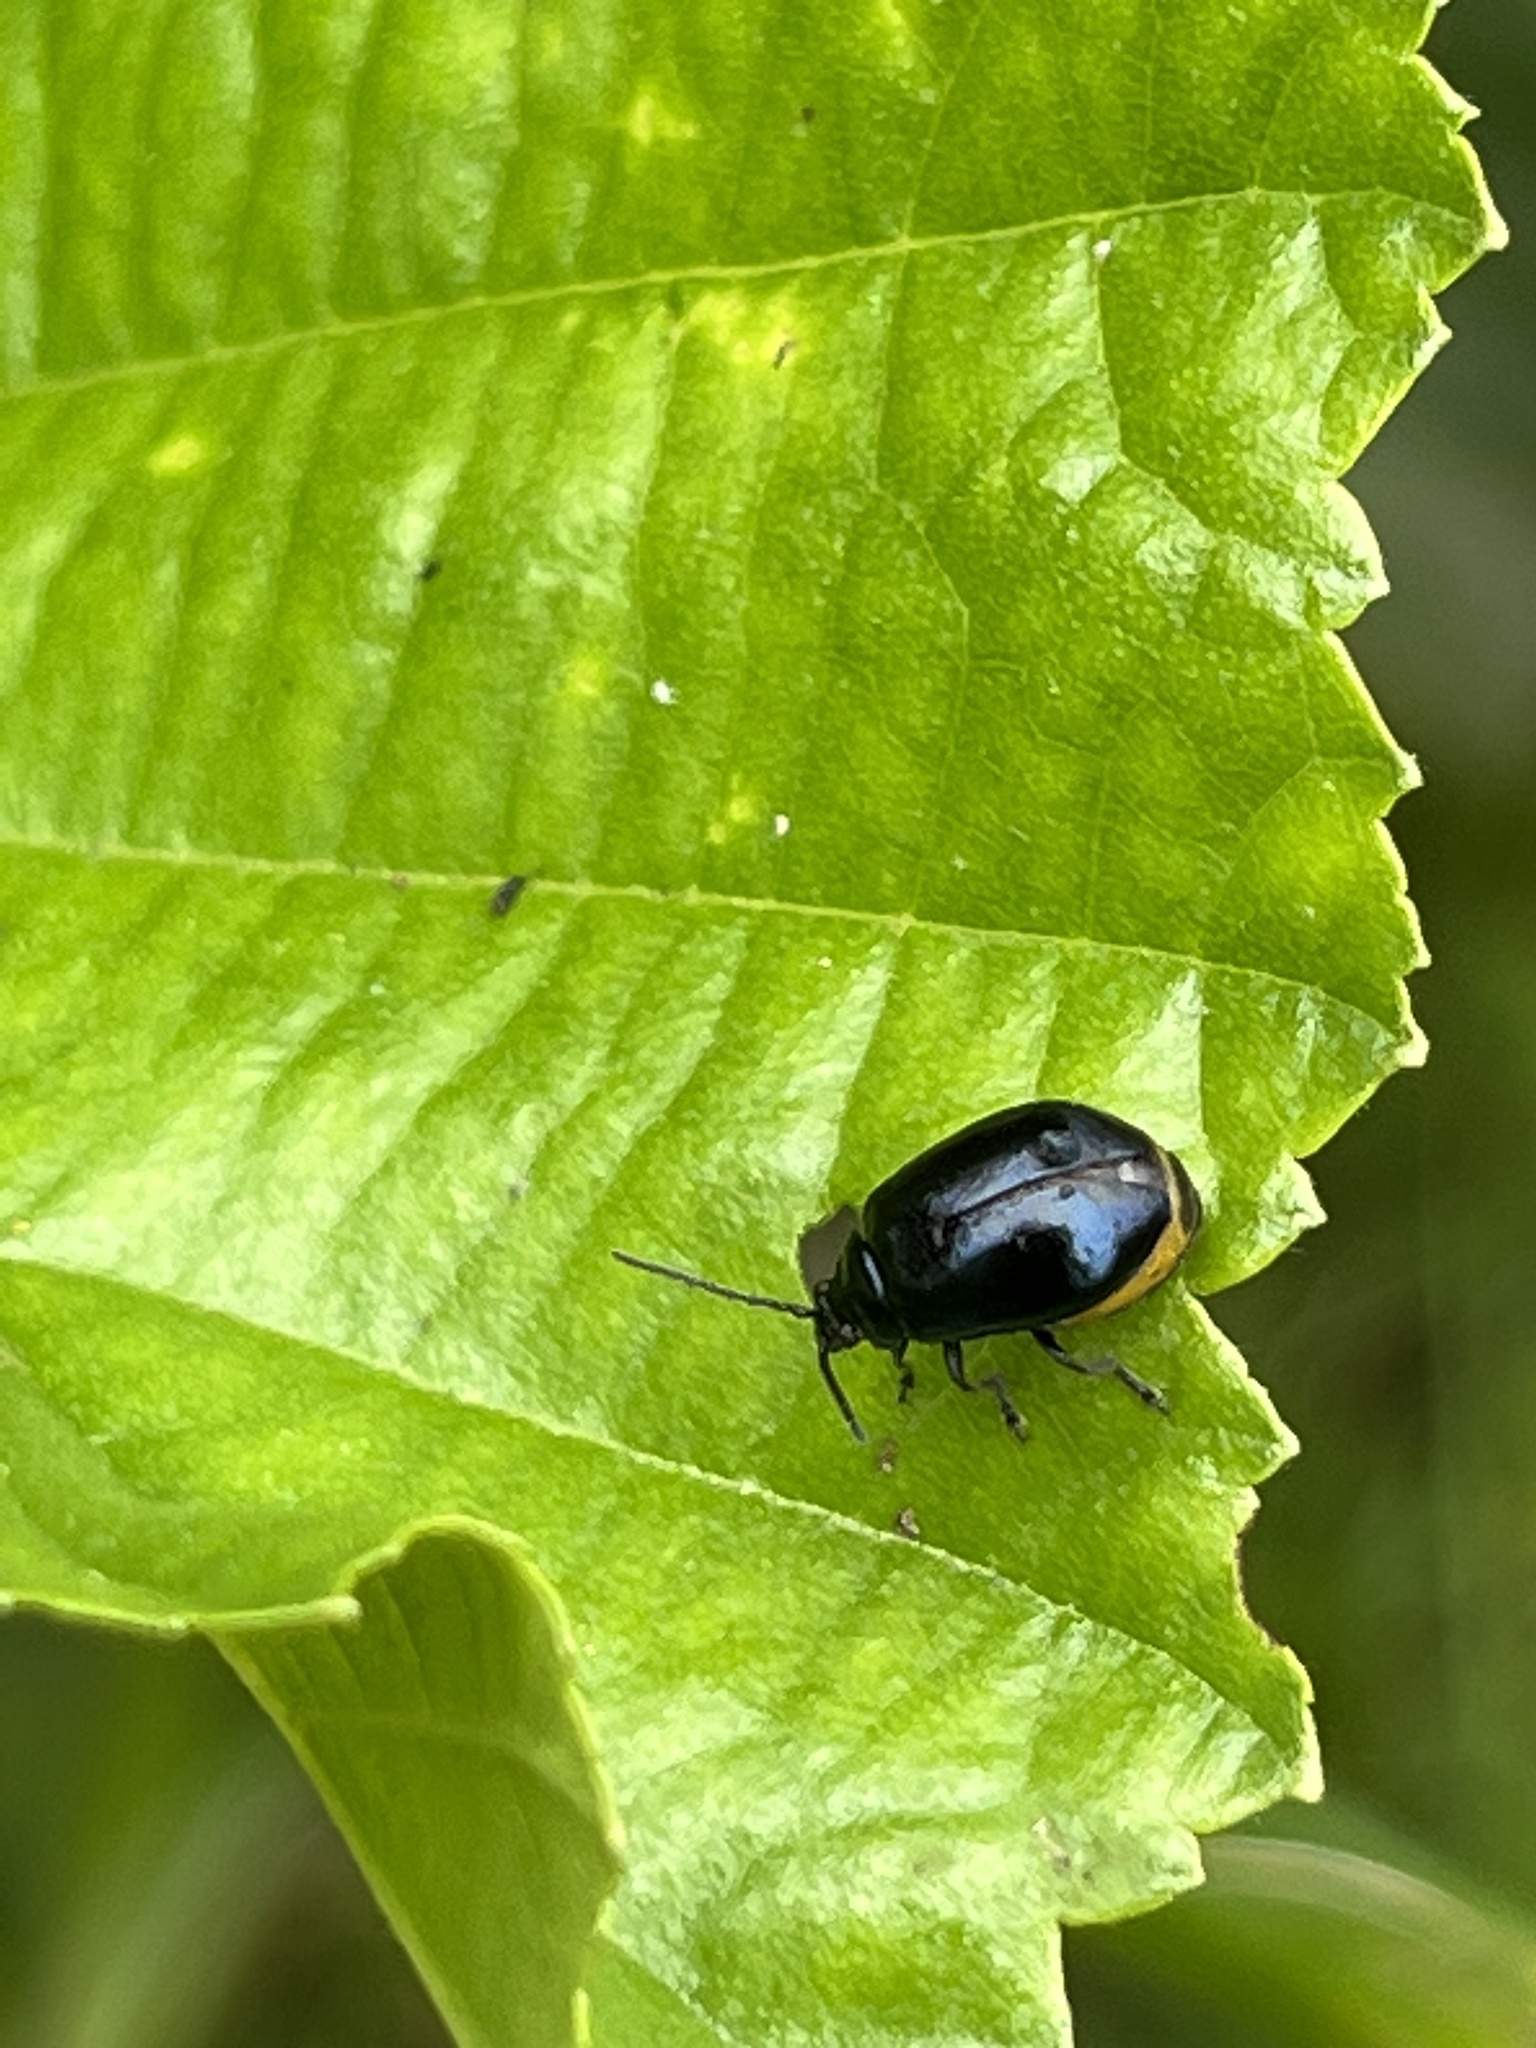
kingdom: Animalia
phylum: Arthropoda
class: Insecta
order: Coleoptera
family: Chrysomelidae
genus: Agelastica
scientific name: Agelastica alni
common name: Alder leaf beetle
